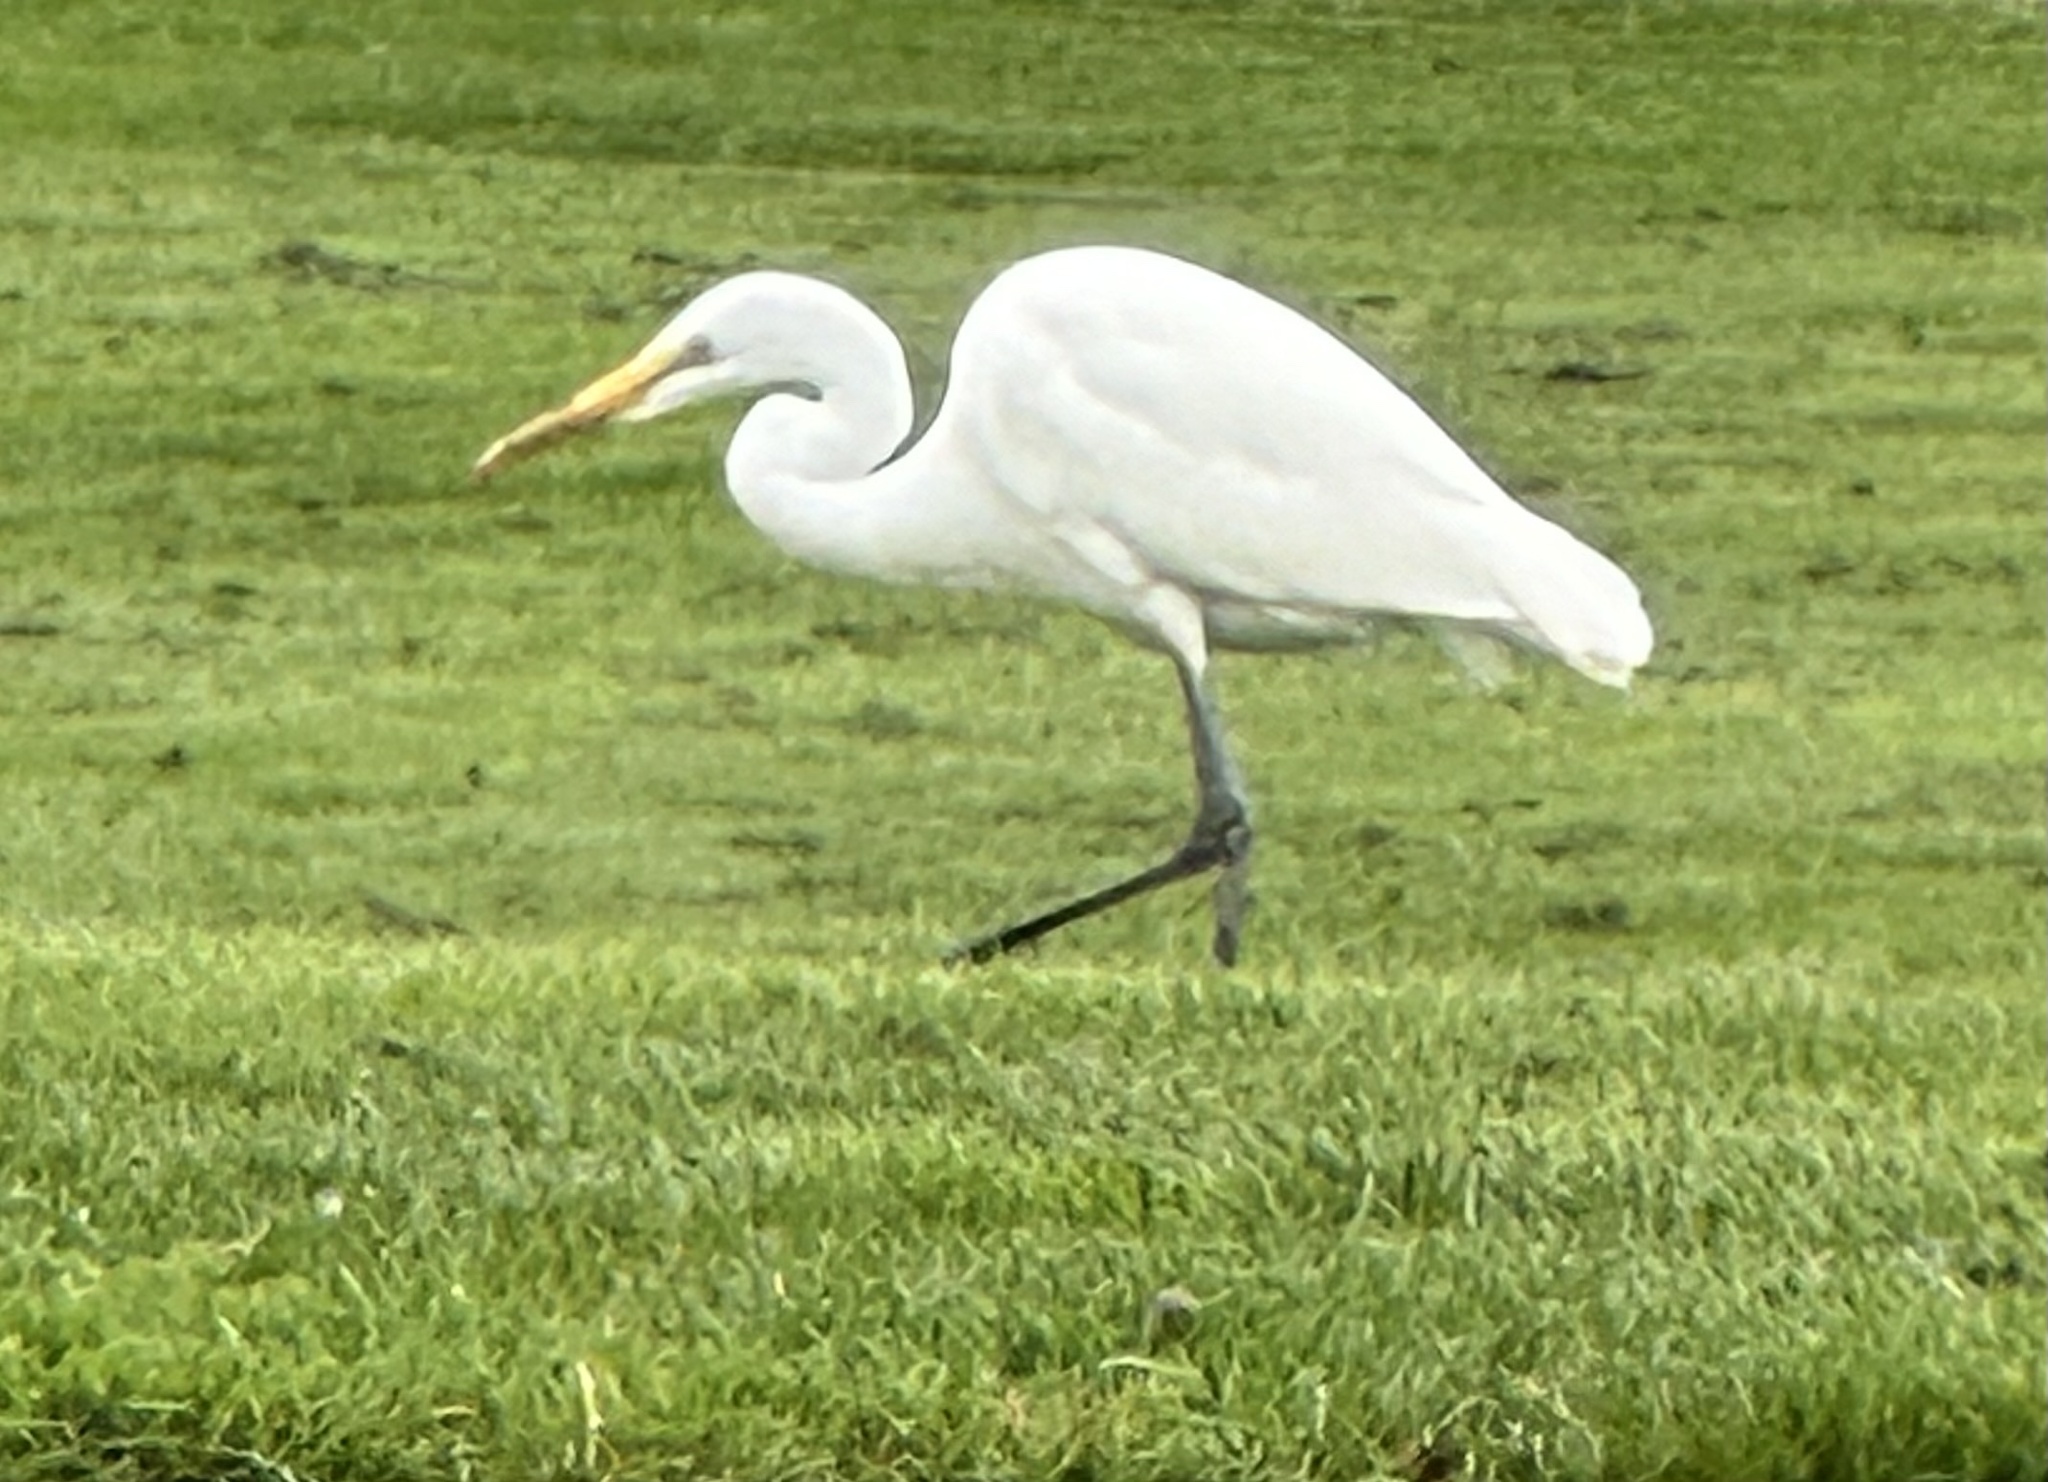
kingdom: Animalia
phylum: Chordata
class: Aves
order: Pelecaniformes
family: Ardeidae
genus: Ardea
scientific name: Ardea alba
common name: Great egret
